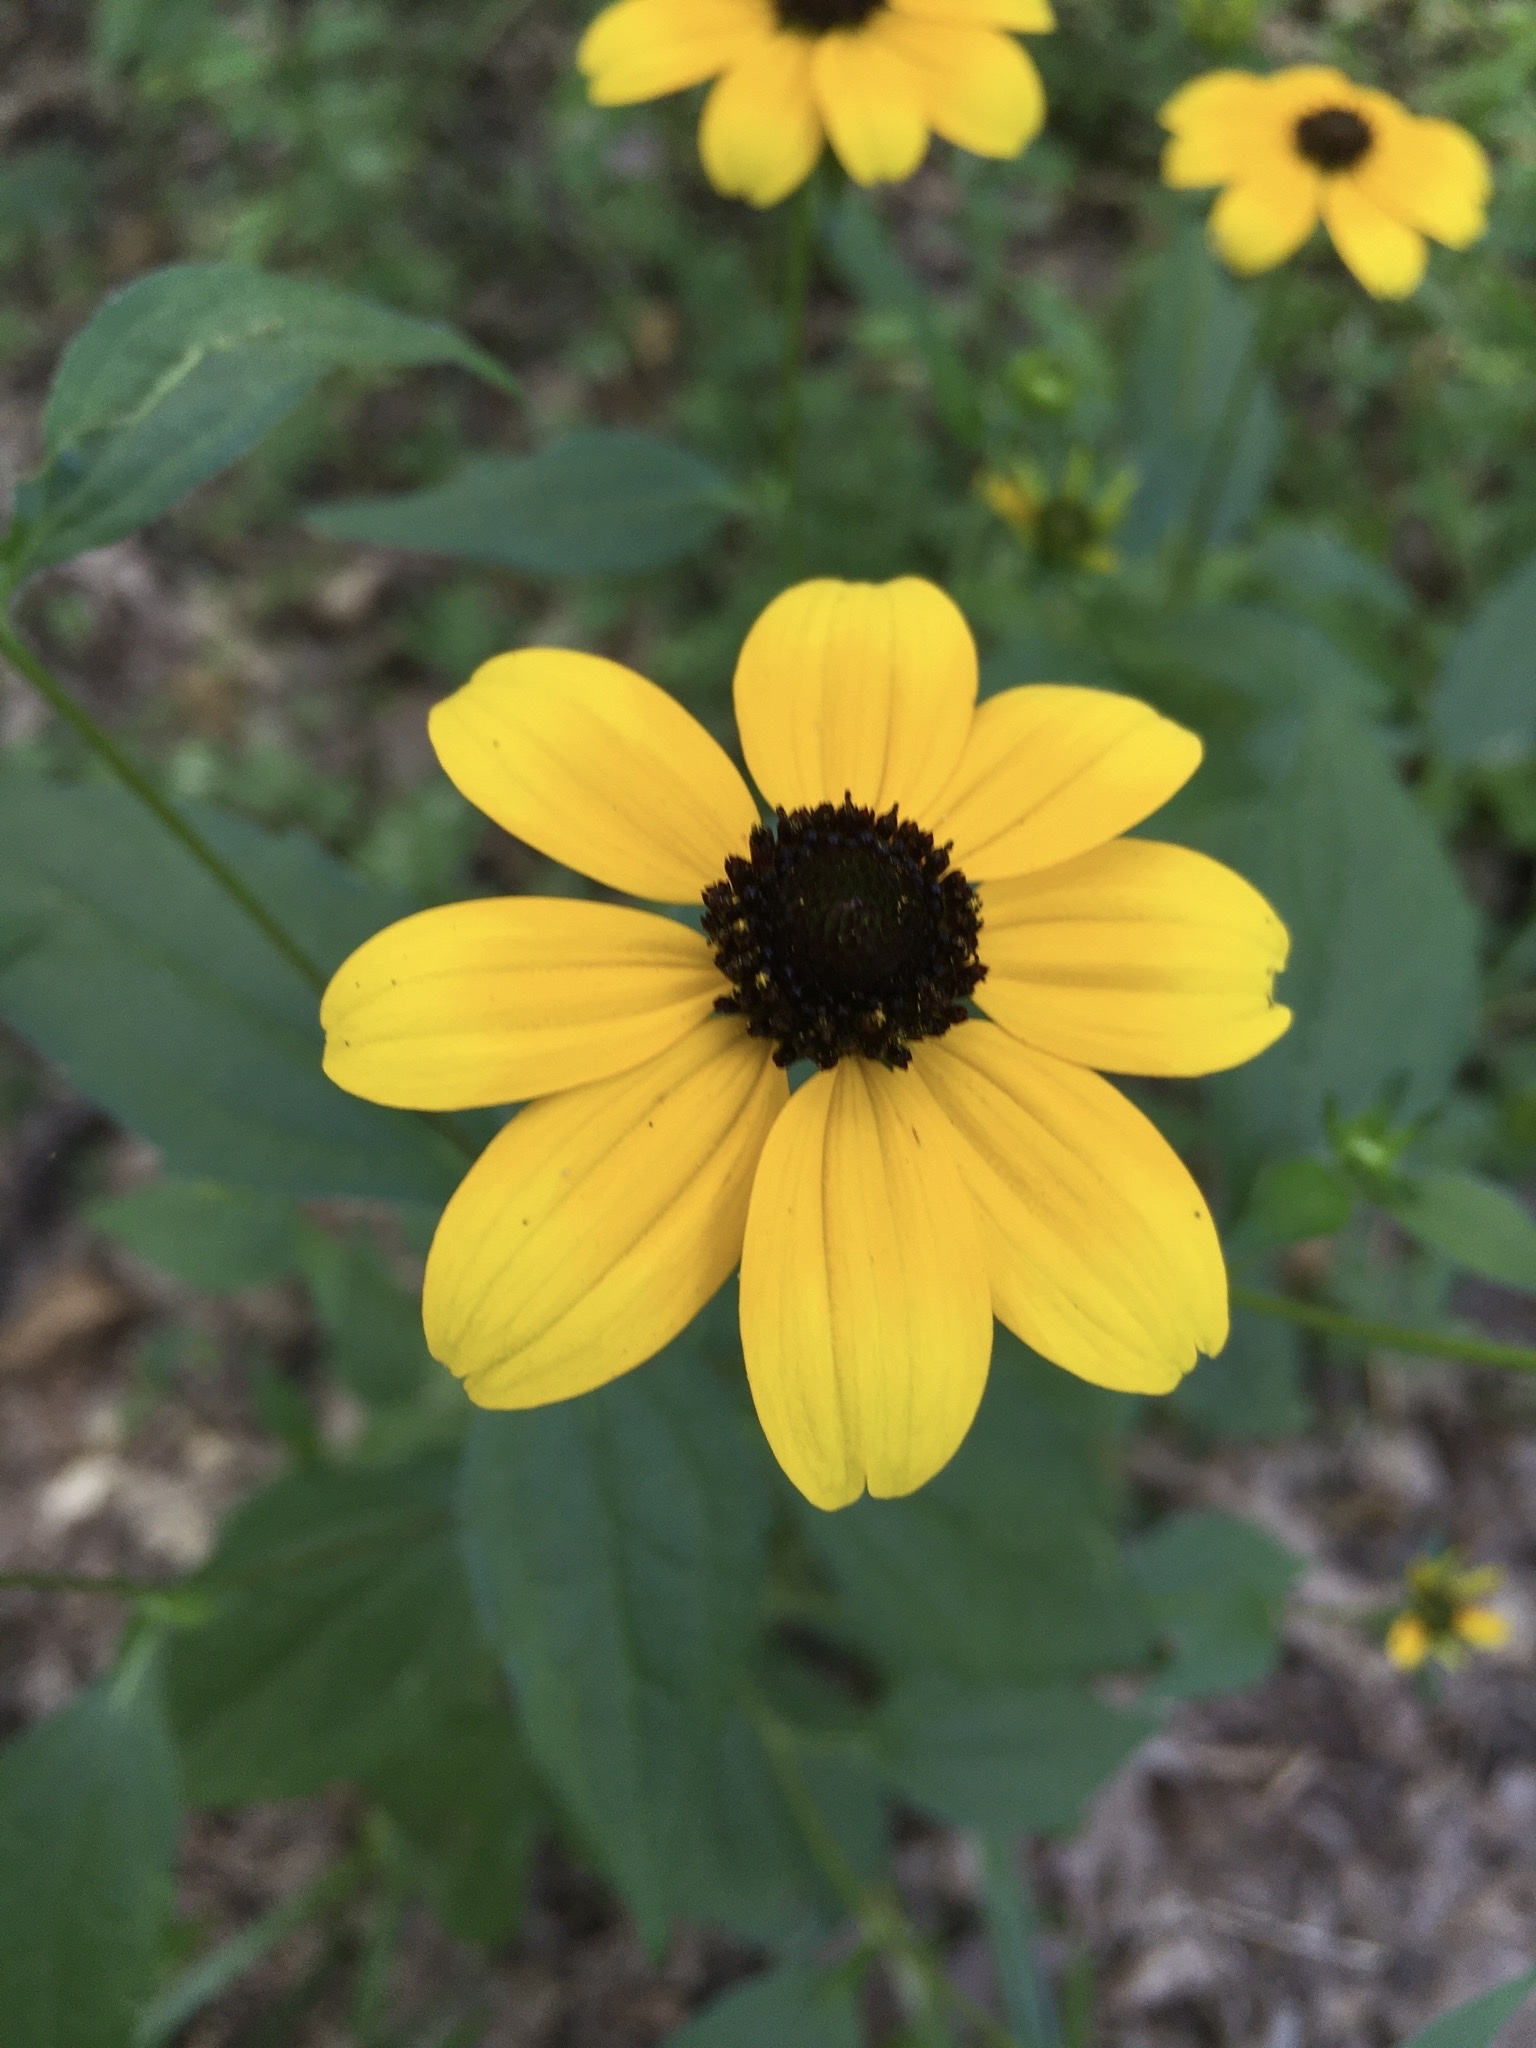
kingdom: Plantae
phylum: Tracheophyta
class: Magnoliopsida
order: Asterales
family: Asteraceae
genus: Rudbeckia
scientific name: Rudbeckia triloba
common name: Thin-leaved coneflower
